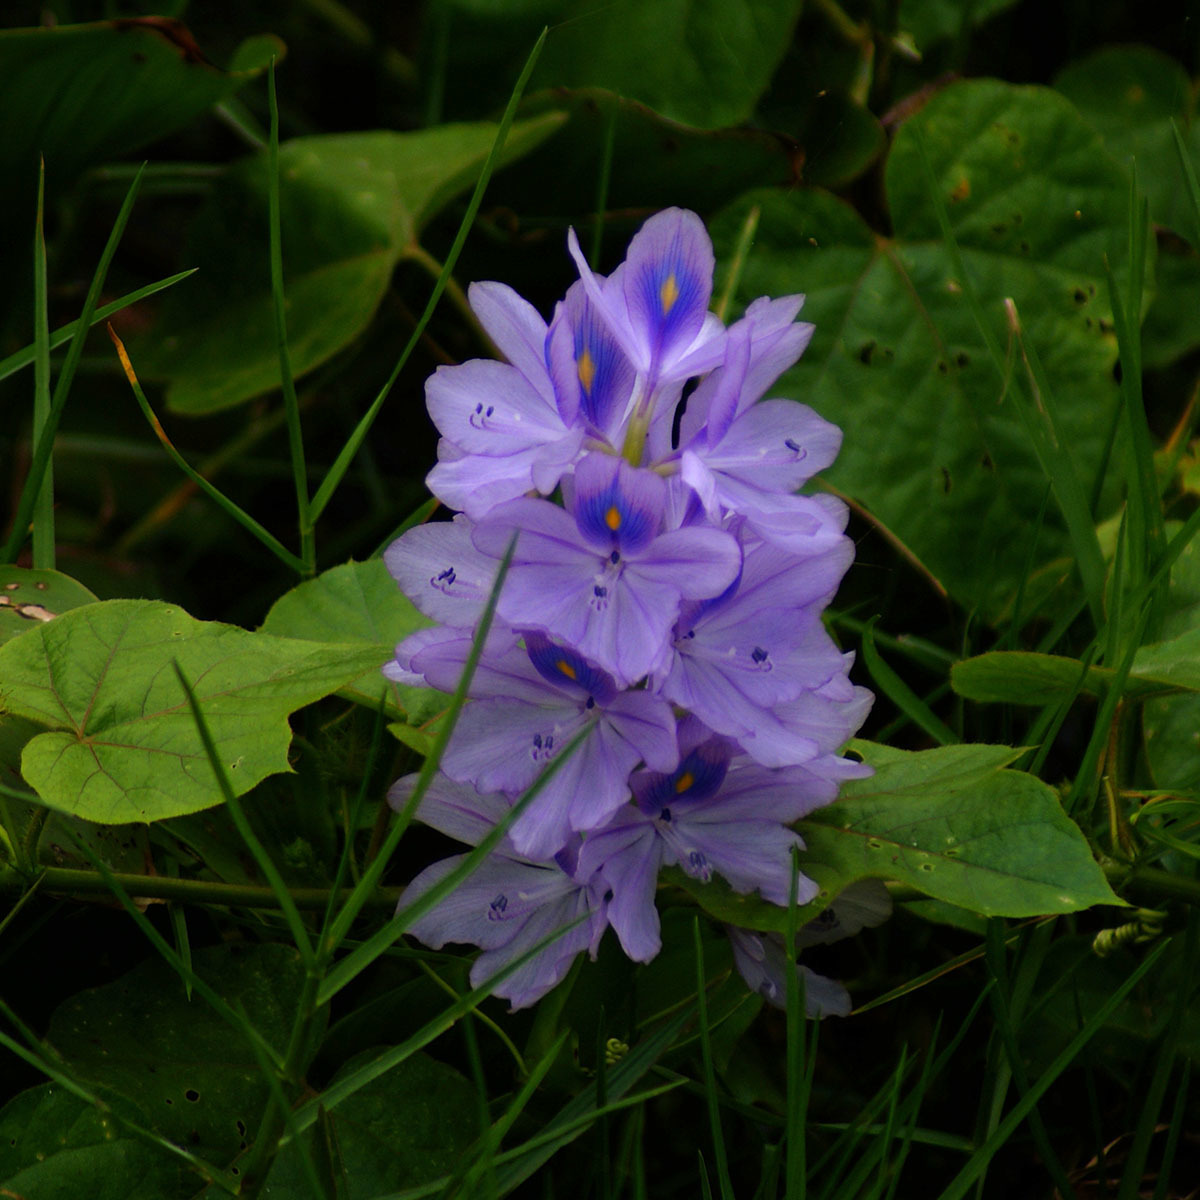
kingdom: Plantae
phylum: Tracheophyta
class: Liliopsida
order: Commelinales
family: Pontederiaceae
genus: Pontederia
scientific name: Pontederia crassipes
